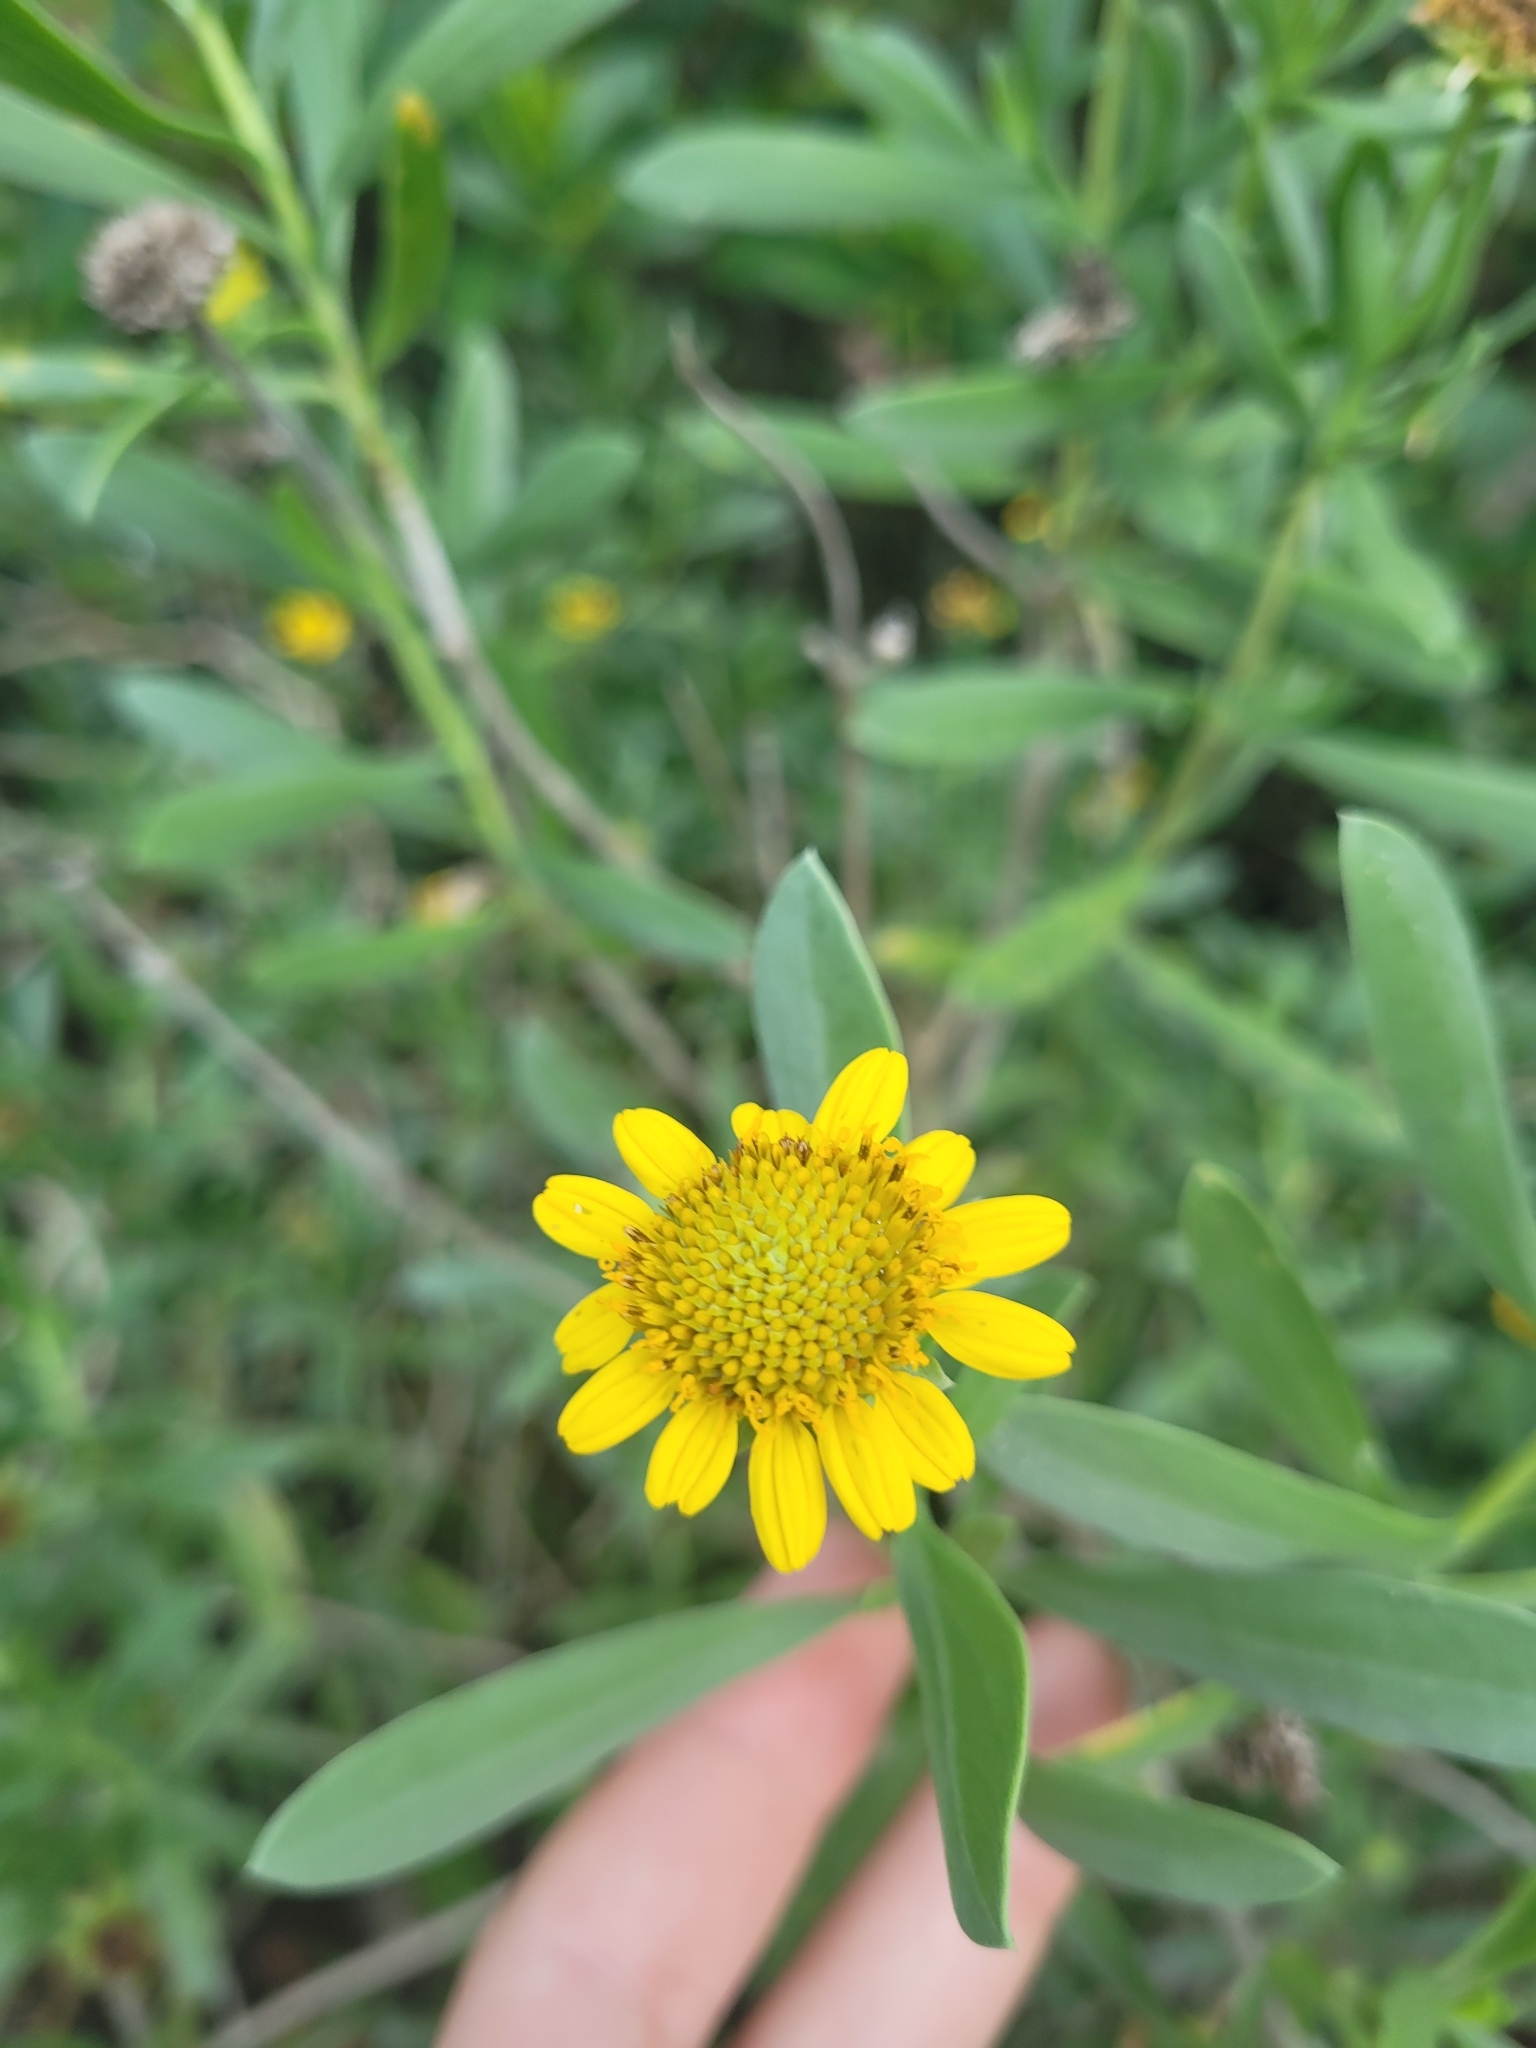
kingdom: Plantae
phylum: Tracheophyta
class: Magnoliopsida
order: Asterales
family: Asteraceae
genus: Borrichia
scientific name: Borrichia frutescens
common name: Sea oxeye
